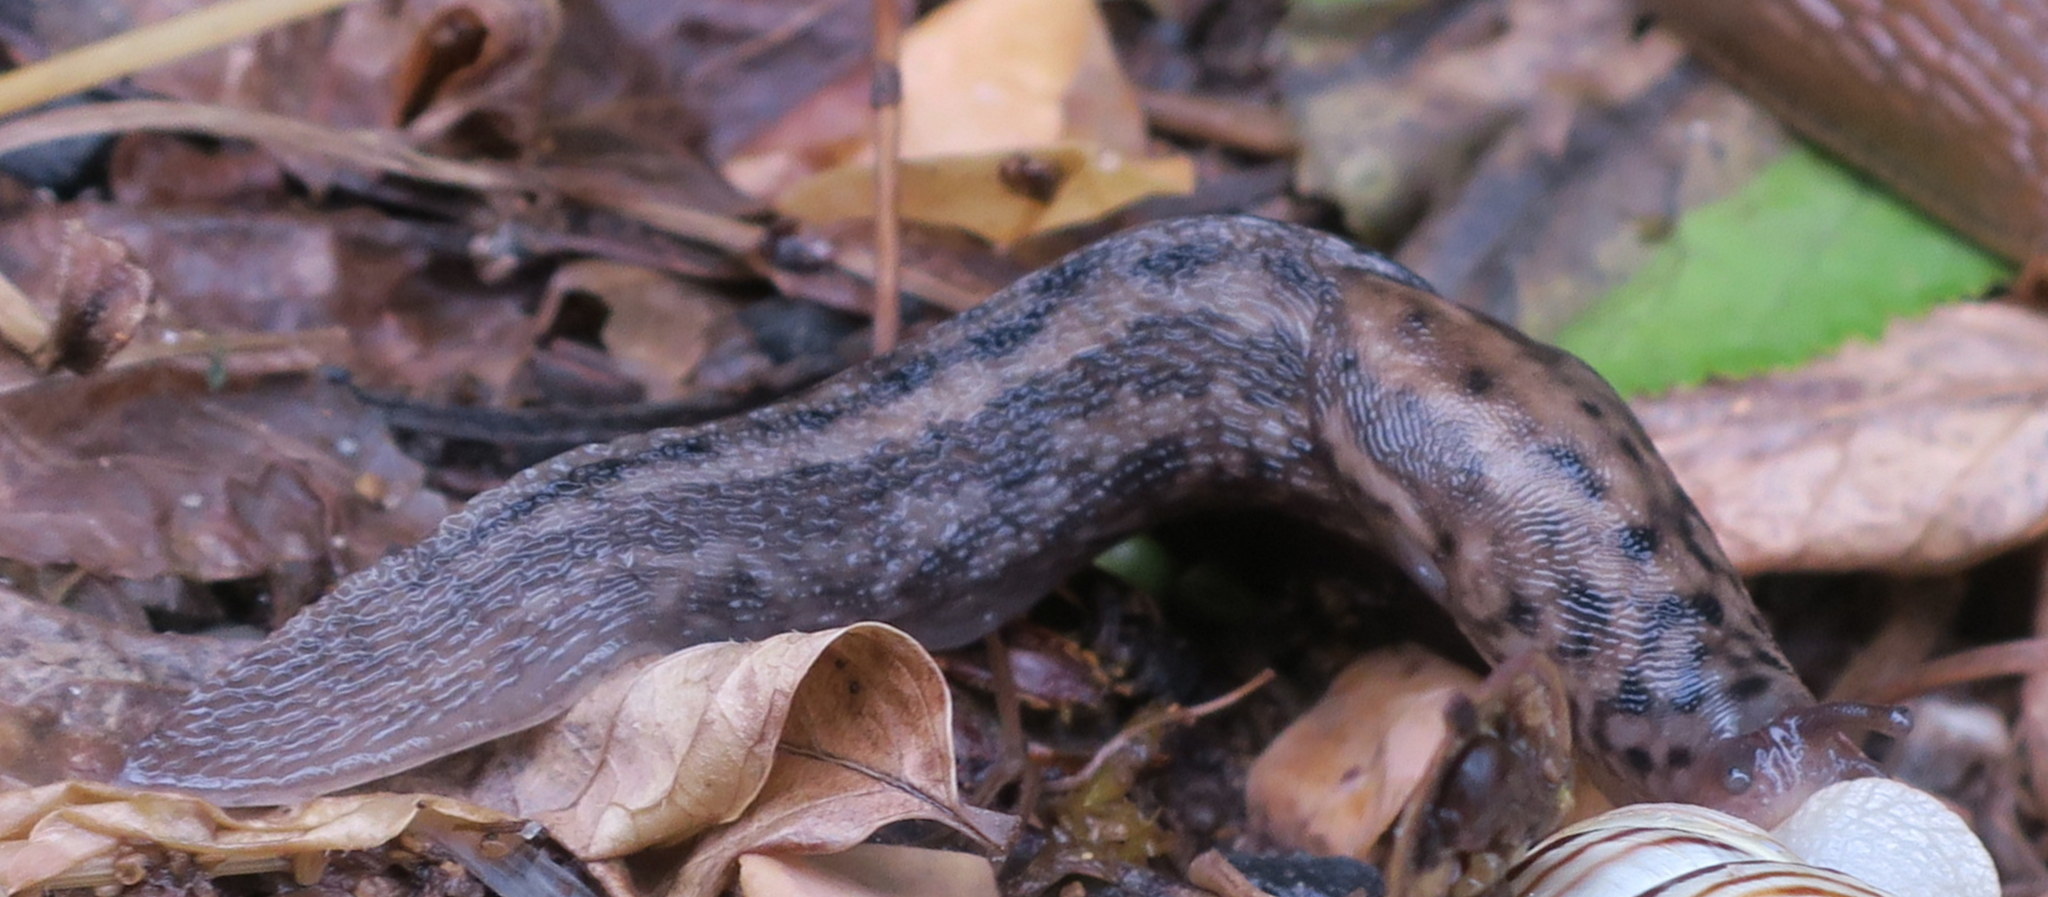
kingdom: Animalia
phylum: Mollusca
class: Gastropoda
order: Stylommatophora
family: Limacidae
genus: Limax
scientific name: Limax maximus
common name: Great grey slug
